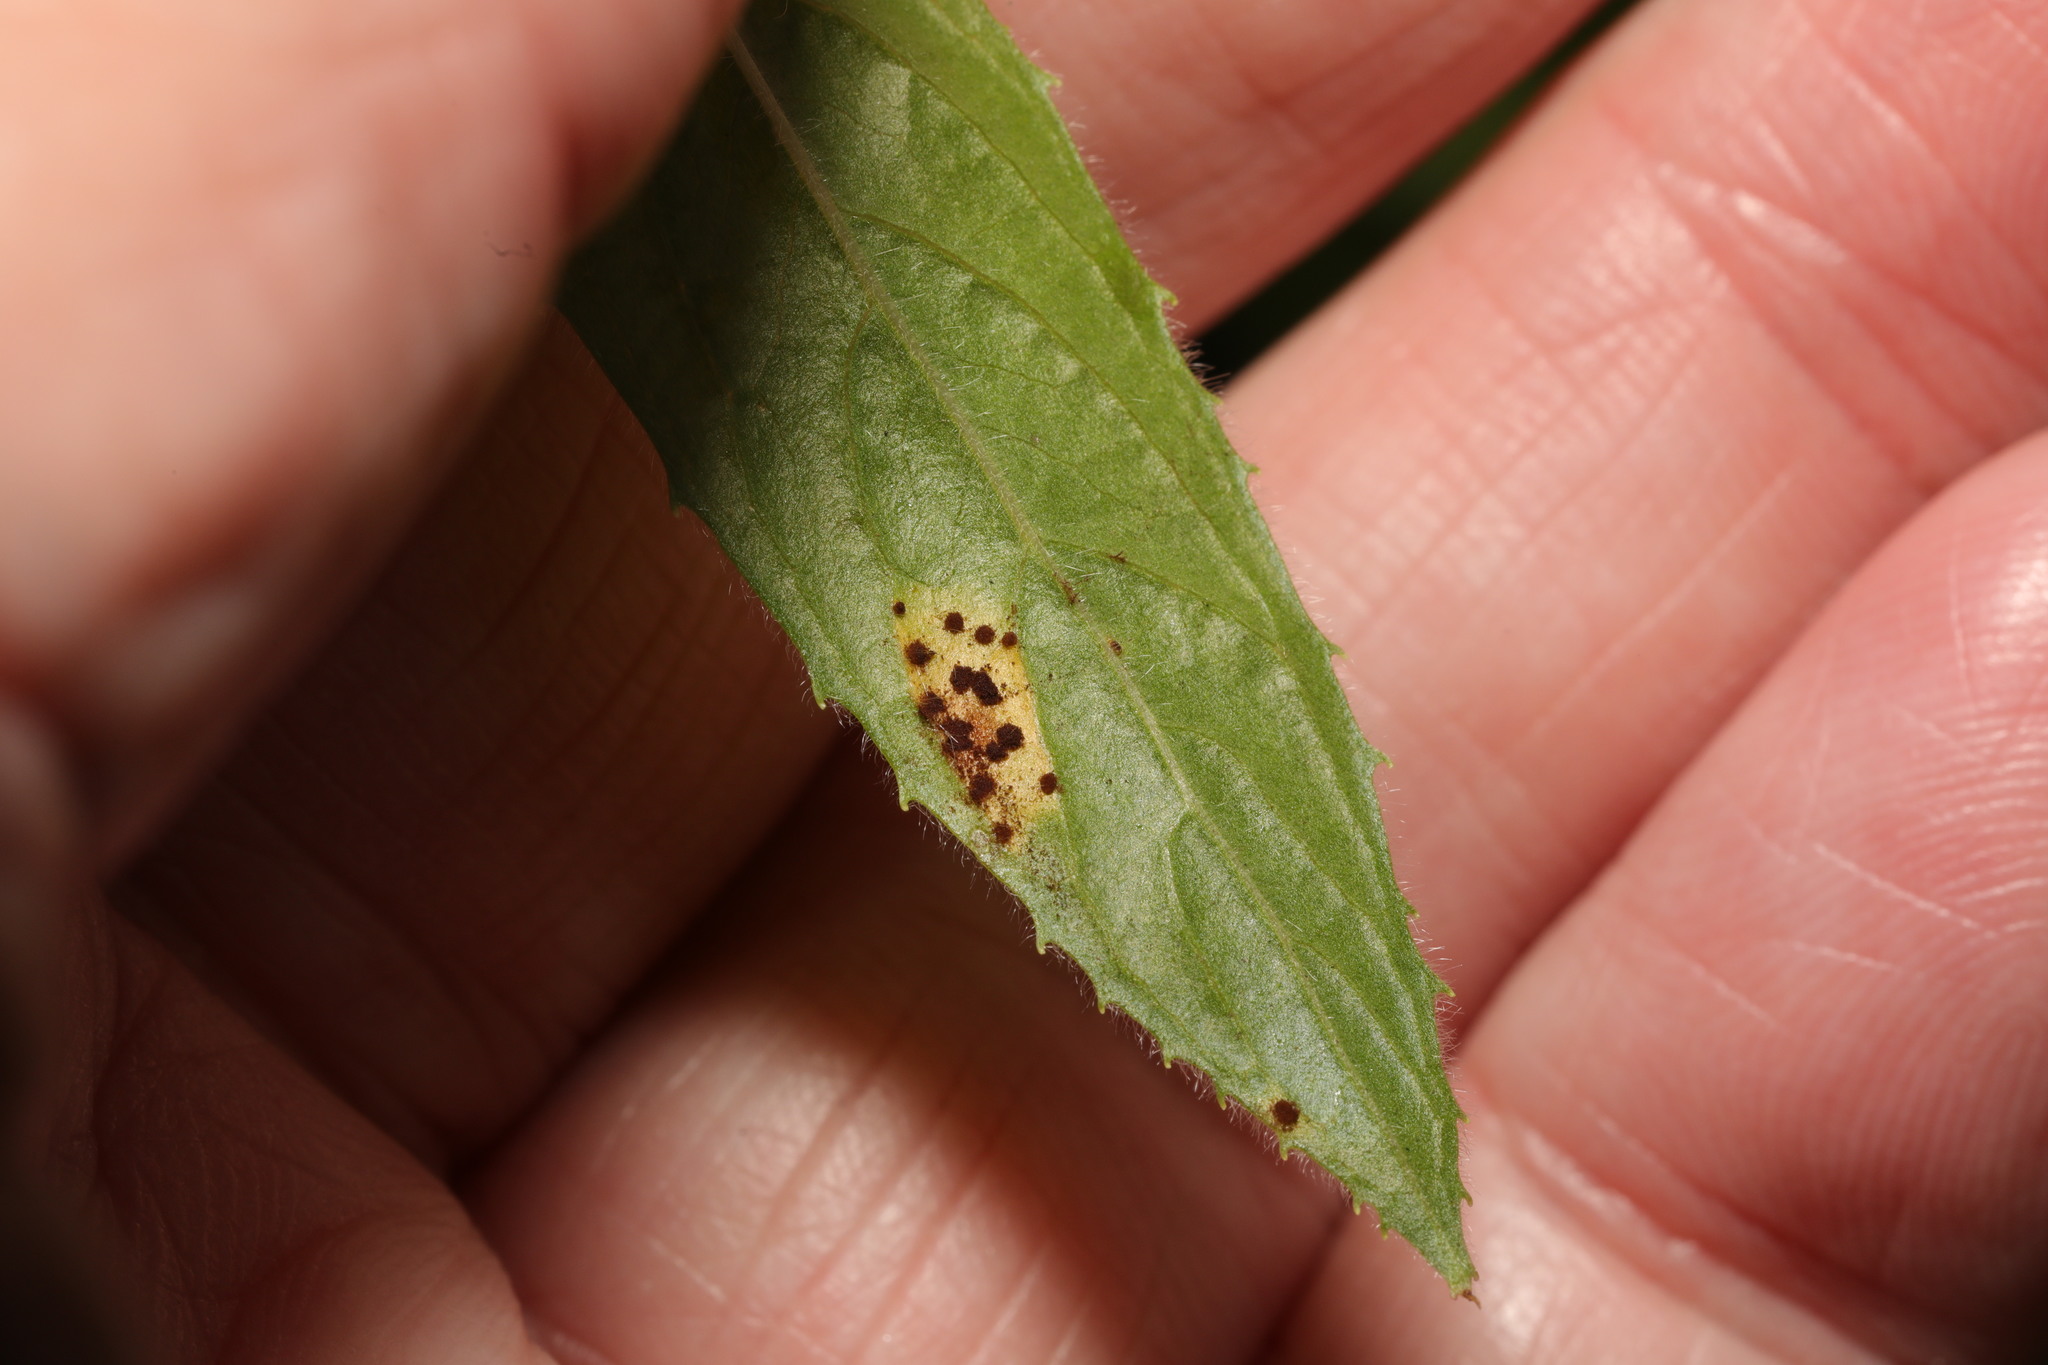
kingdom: Fungi
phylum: Basidiomycota
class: Pucciniomycetes
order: Pucciniales
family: Pucciniaceae
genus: Puccinia
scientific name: Puccinia pulverulenta
